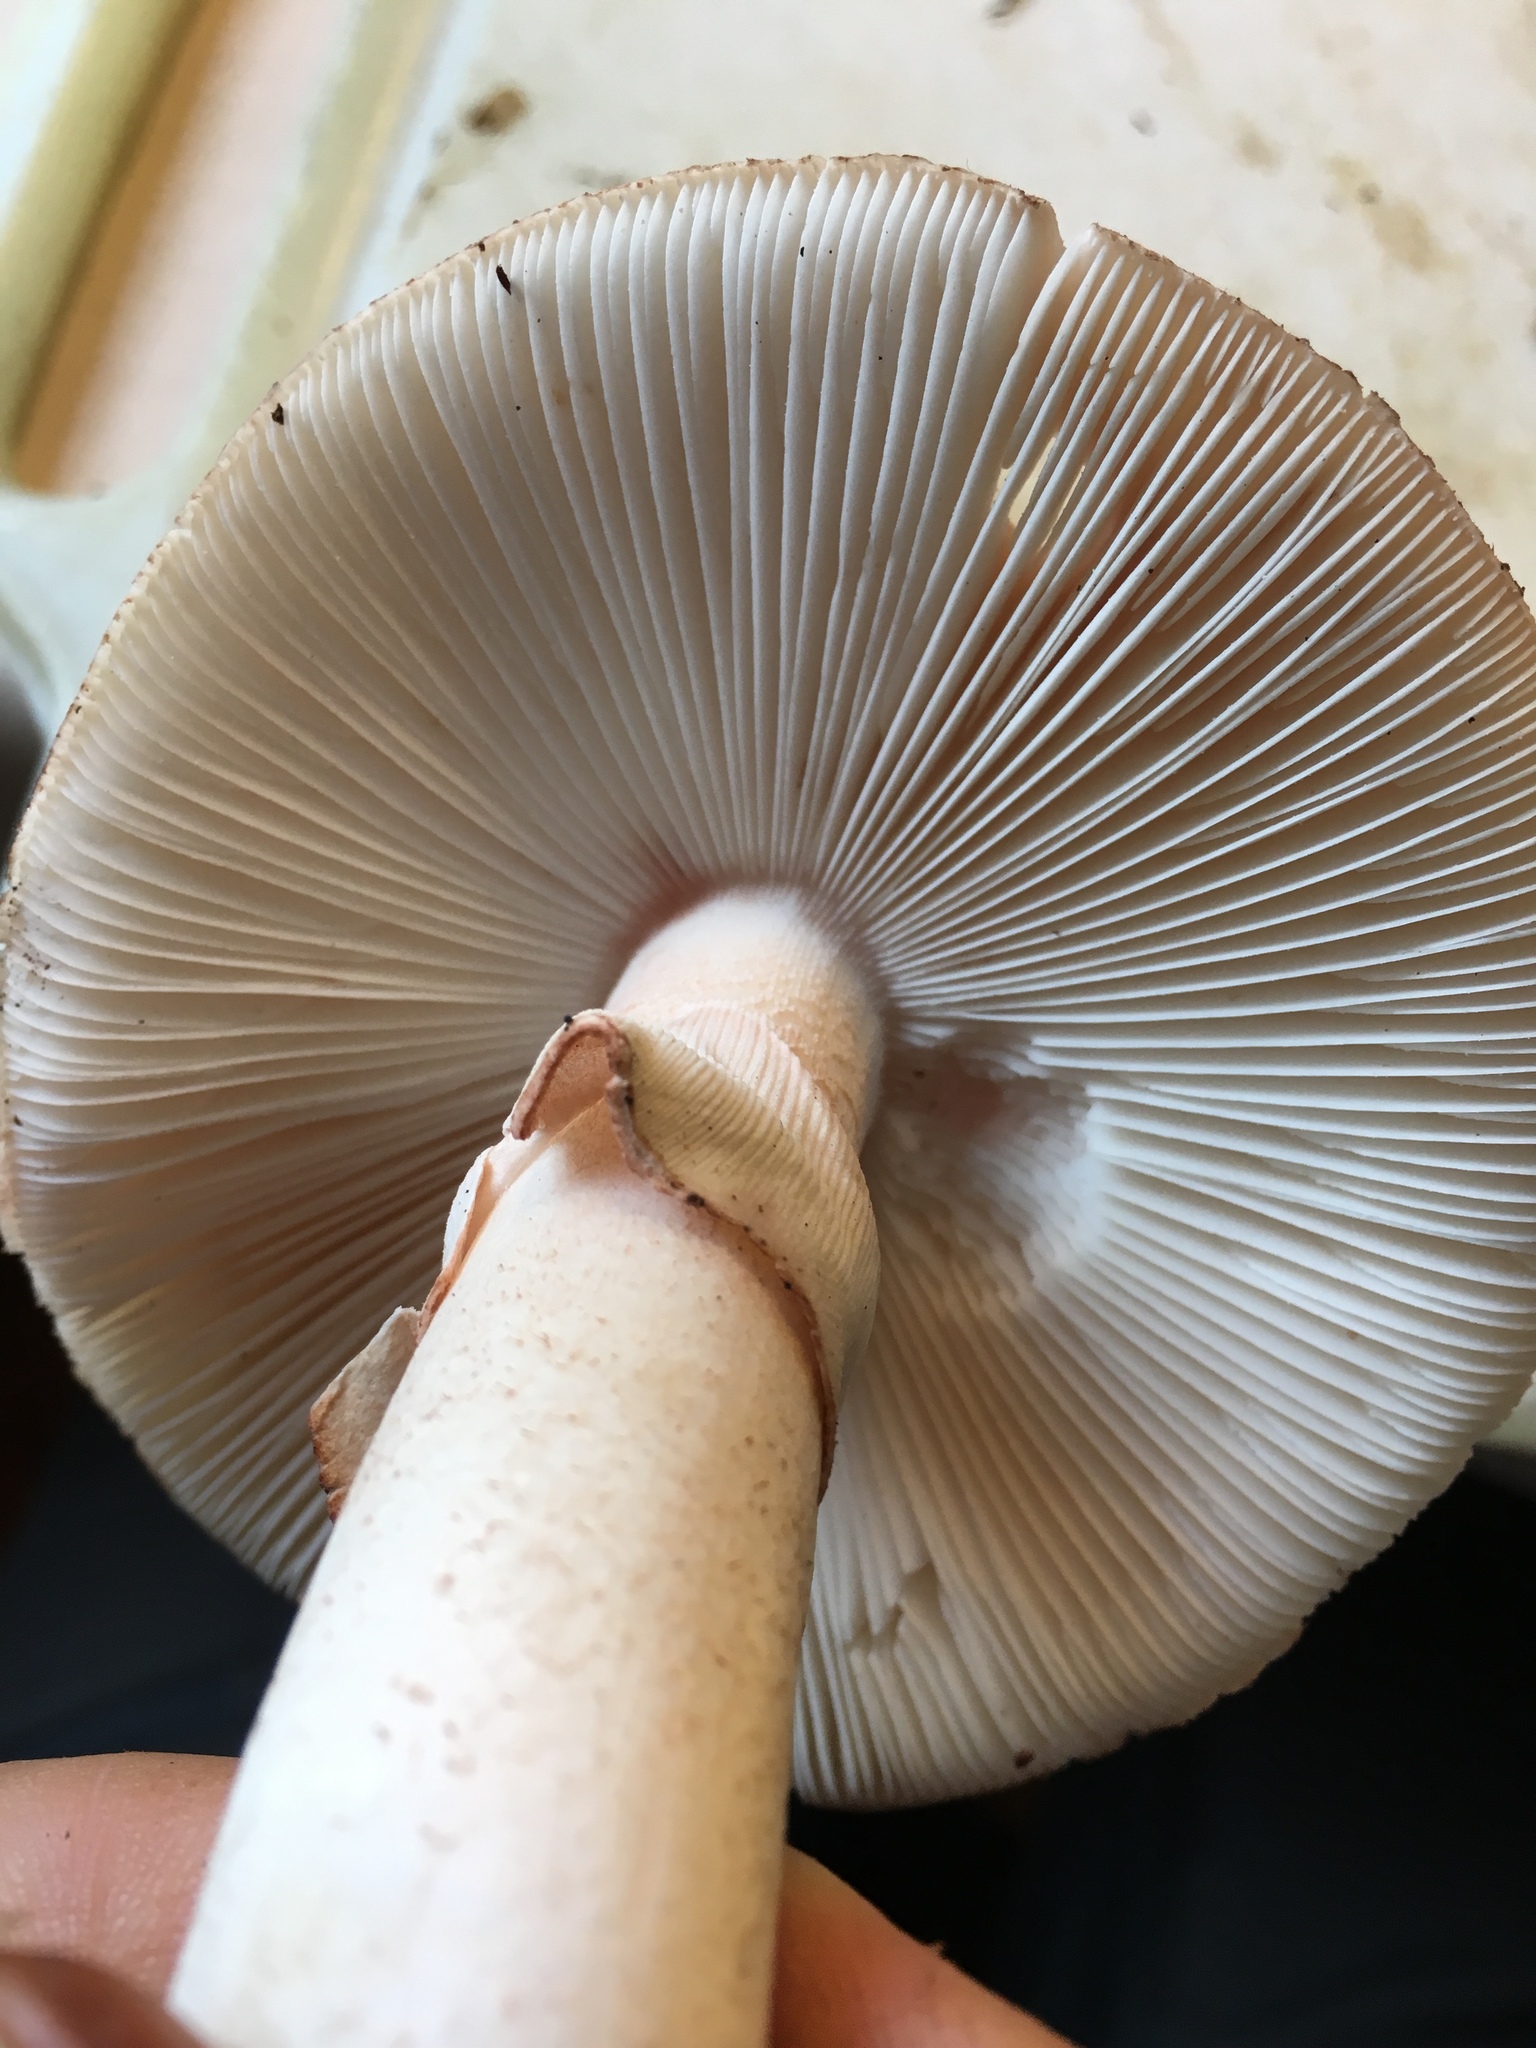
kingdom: Fungi
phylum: Basidiomycota
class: Agaricomycetes
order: Agaricales
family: Amanitaceae
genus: Amanita
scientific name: Amanita rubescens
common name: Blusher
